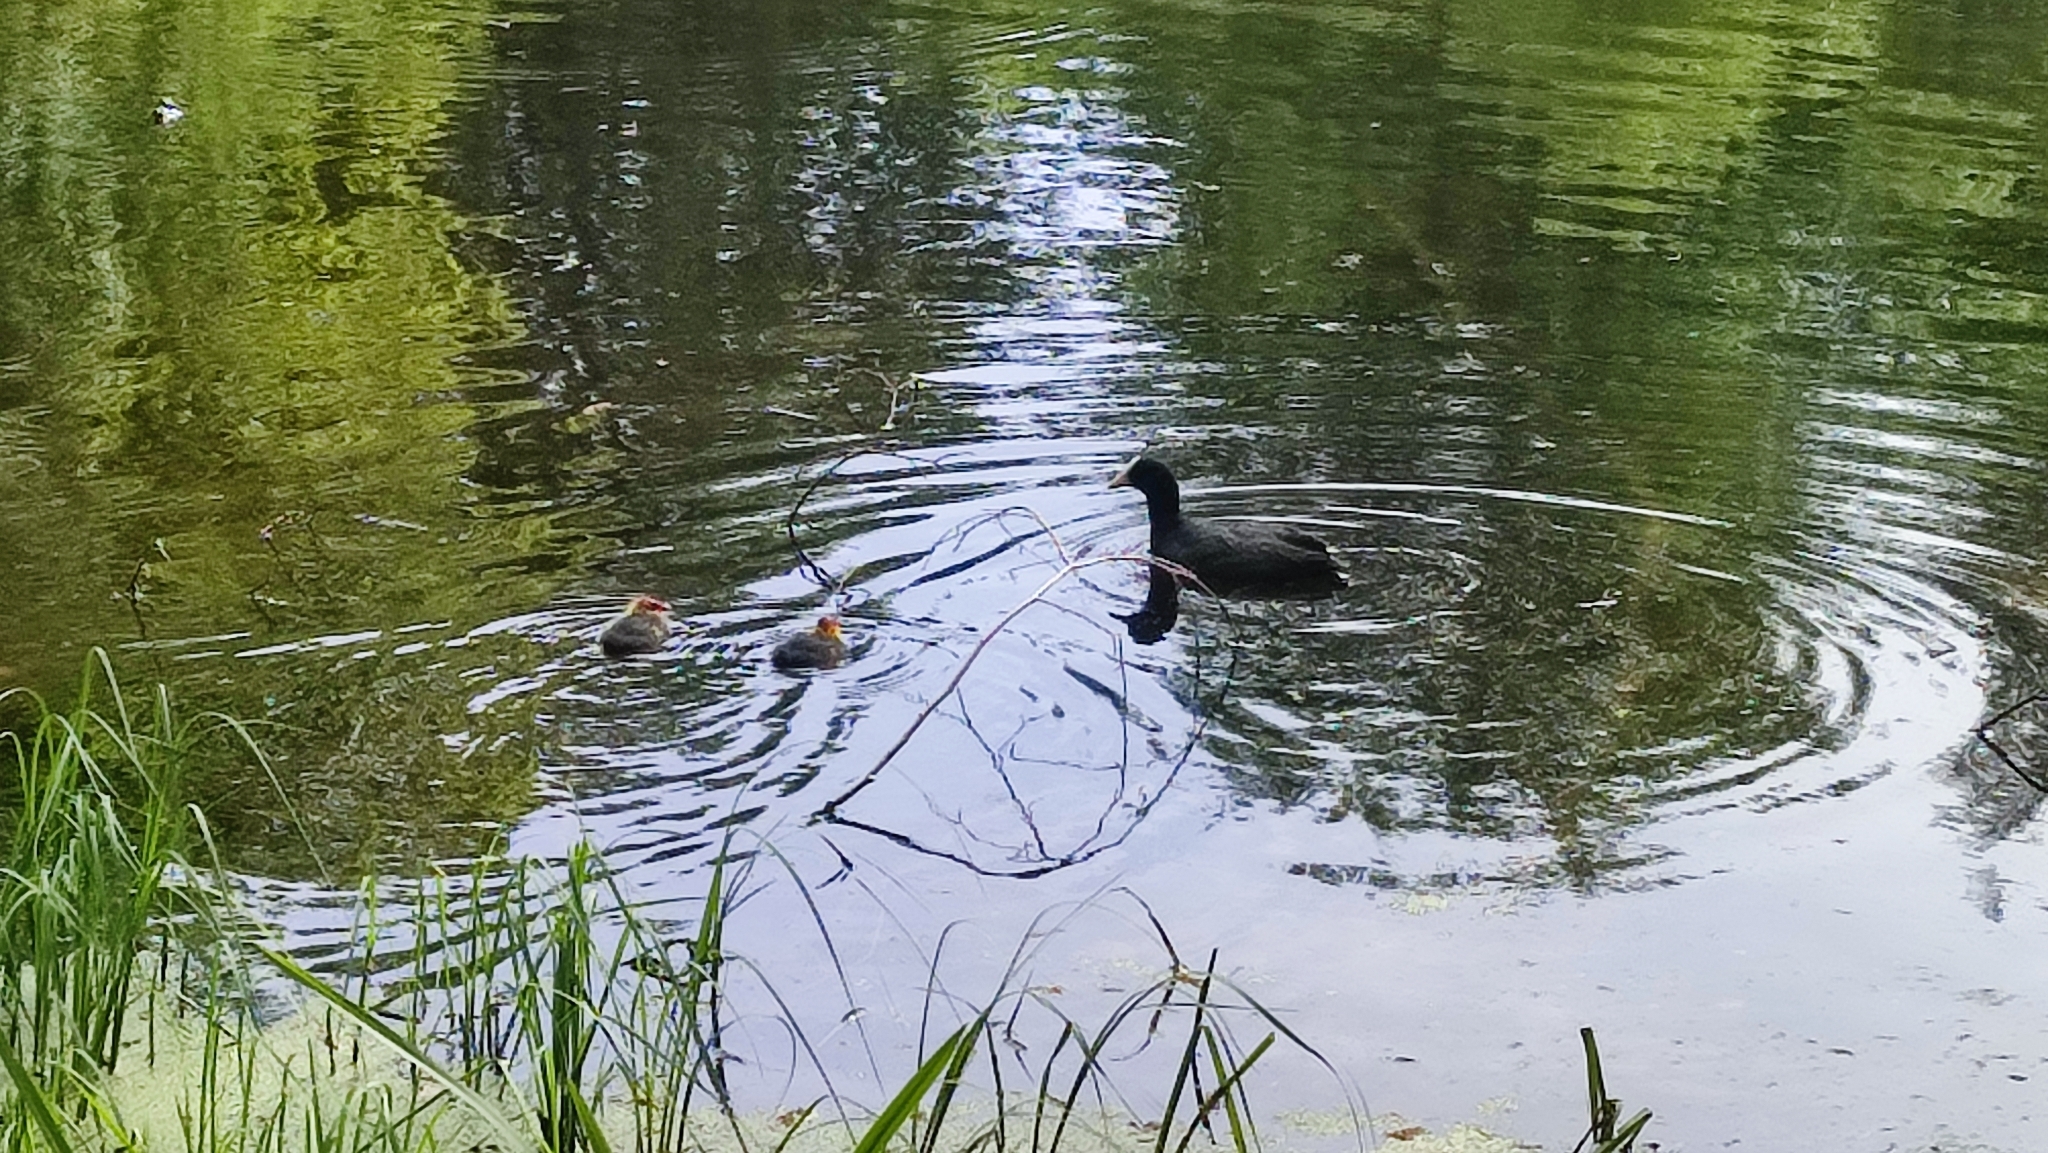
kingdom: Animalia
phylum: Chordata
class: Aves
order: Gruiformes
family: Rallidae
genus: Fulica
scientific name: Fulica atra
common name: Eurasian coot
